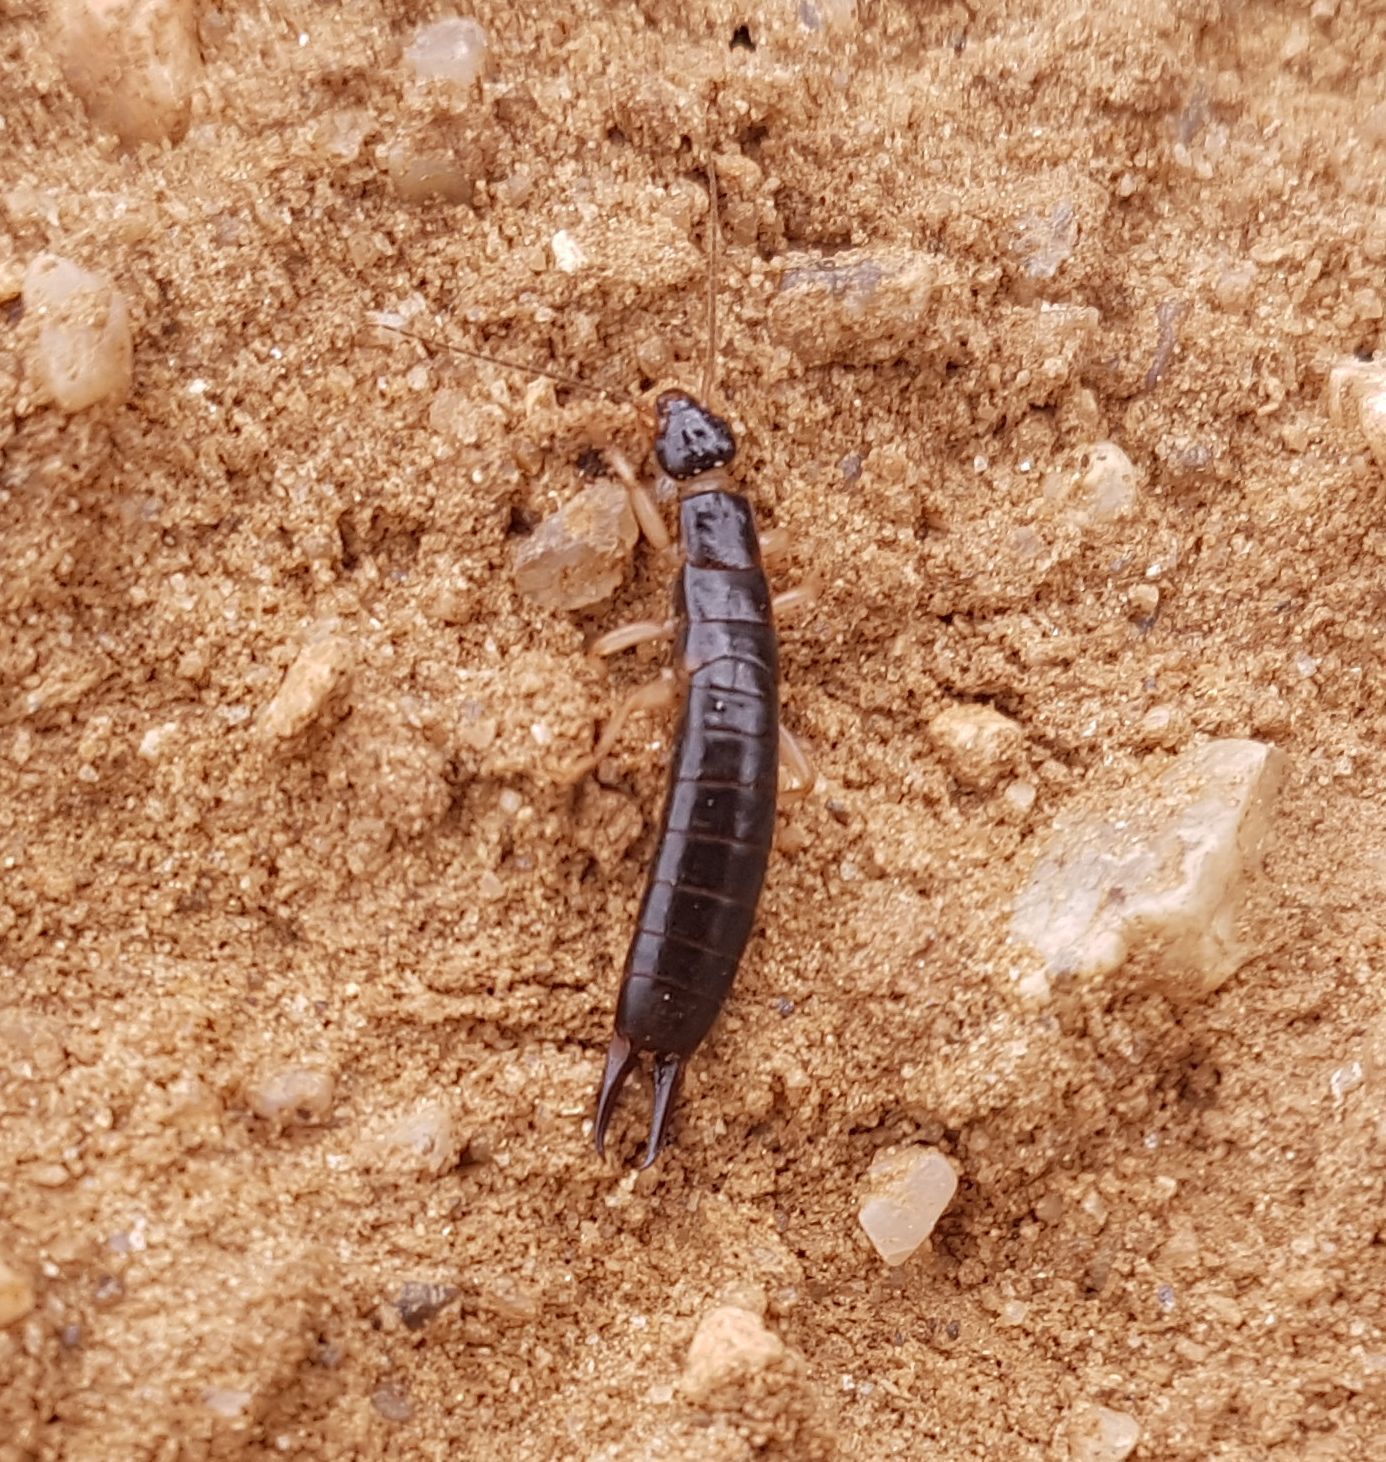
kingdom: Animalia
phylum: Arthropoda
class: Insecta
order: Dermaptera
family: Anisolabididae
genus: Anisolabis
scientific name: Anisolabis maritima
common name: Maritime earwig
